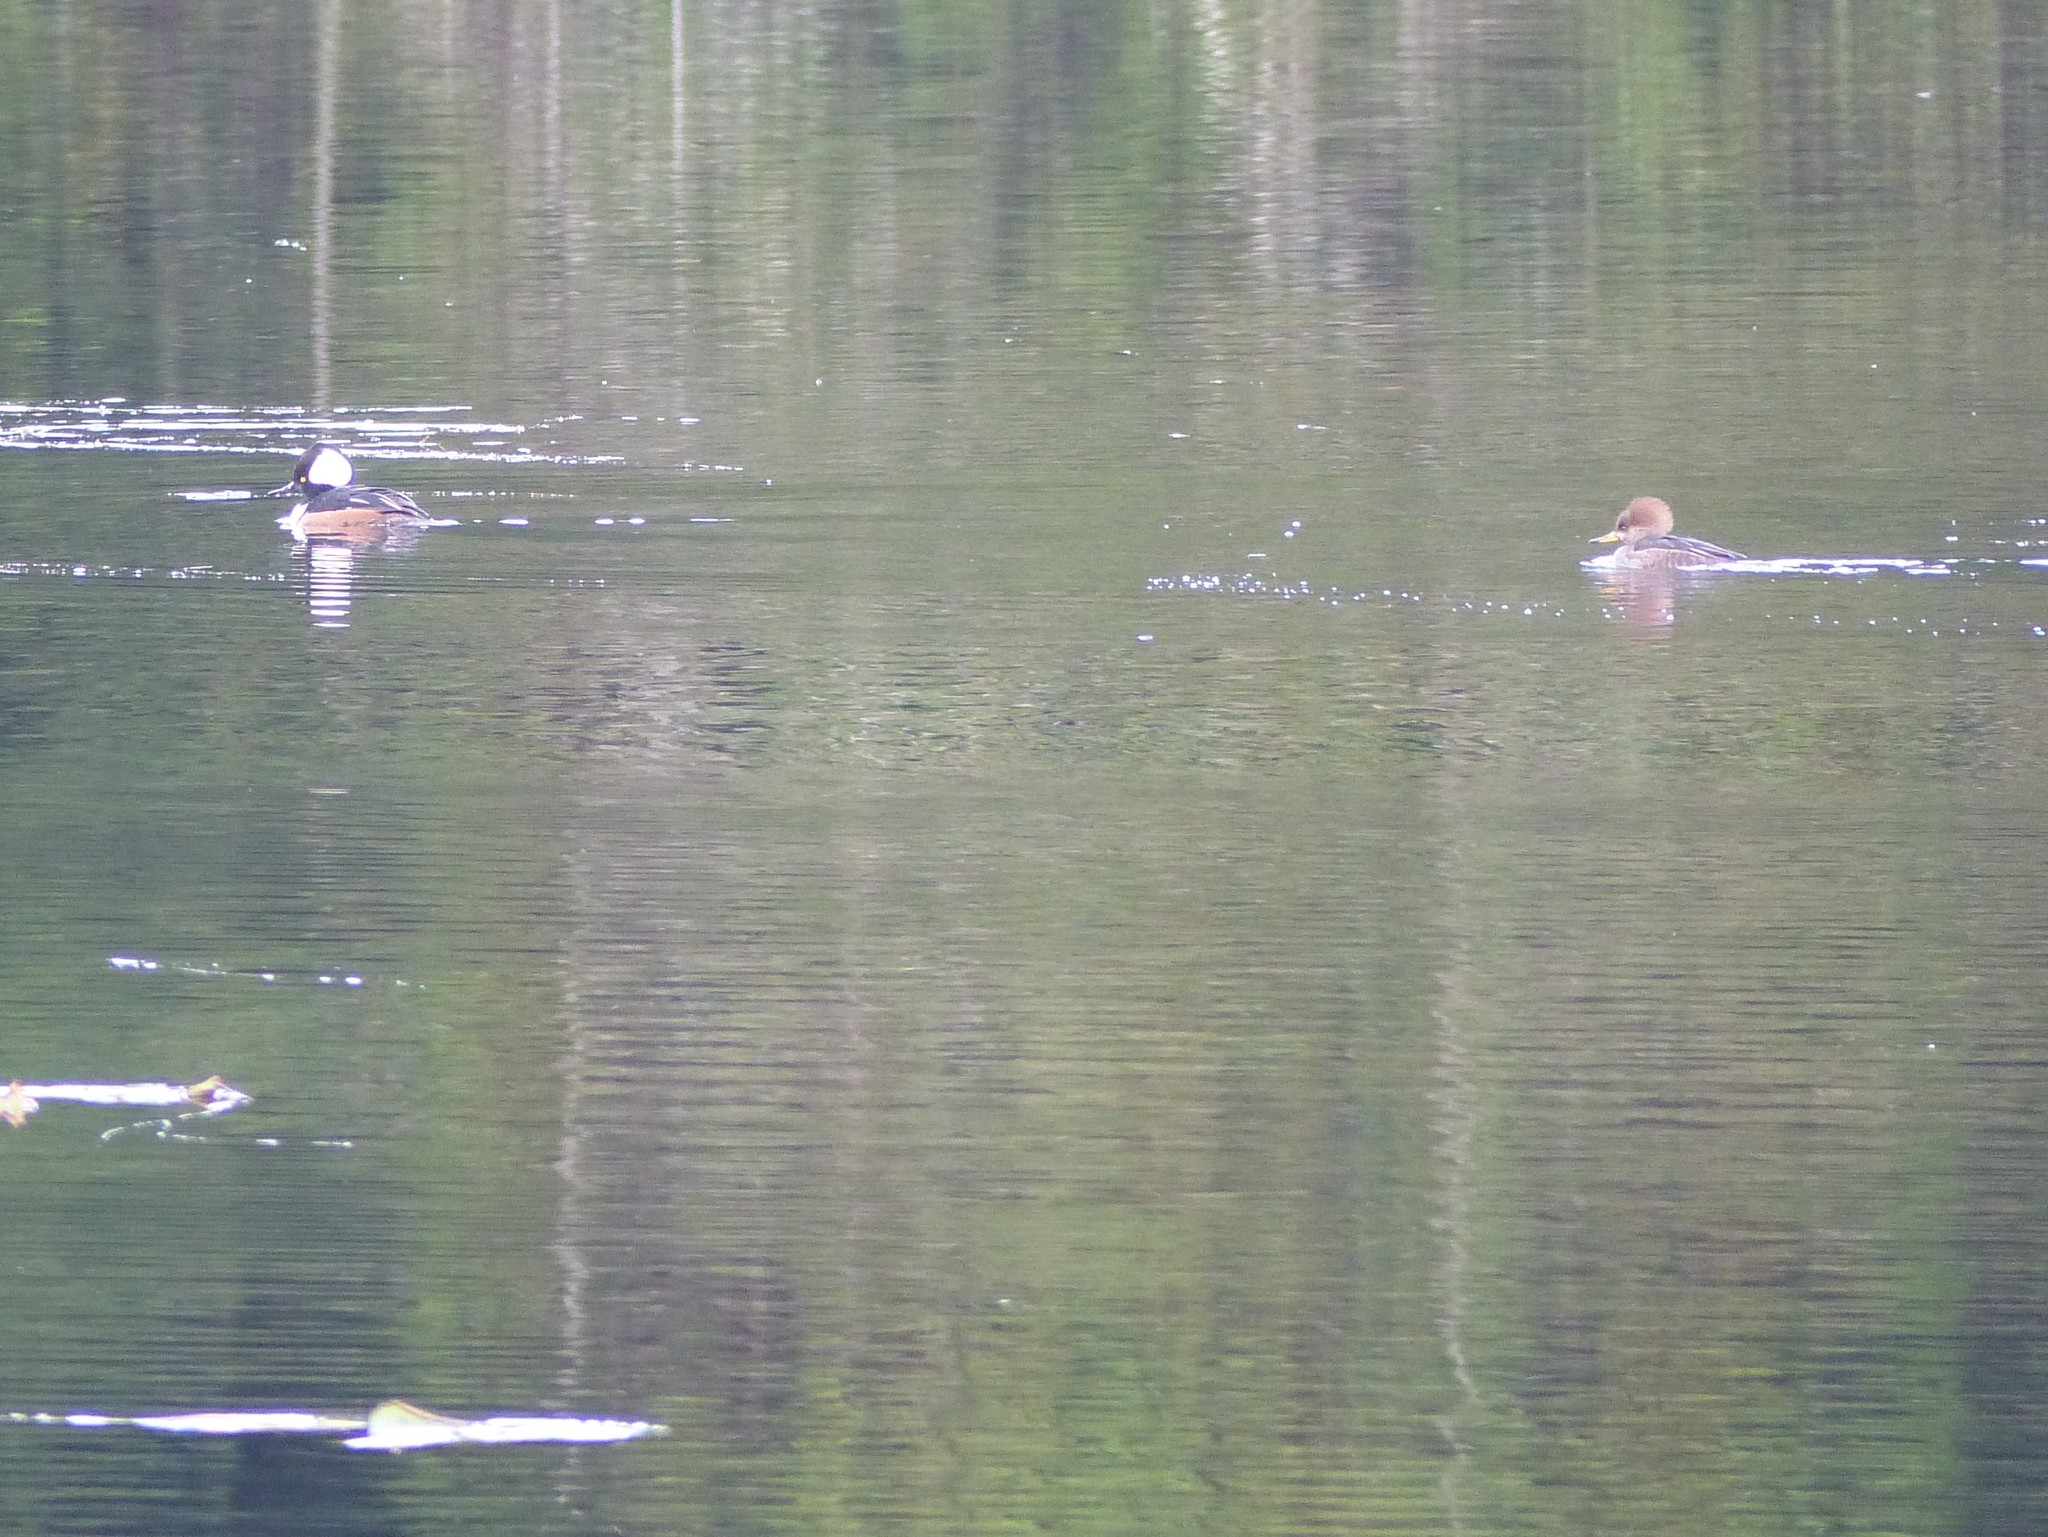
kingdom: Animalia
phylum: Chordata
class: Aves
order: Anseriformes
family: Anatidae
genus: Lophodytes
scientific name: Lophodytes cucullatus
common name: Hooded merganser
